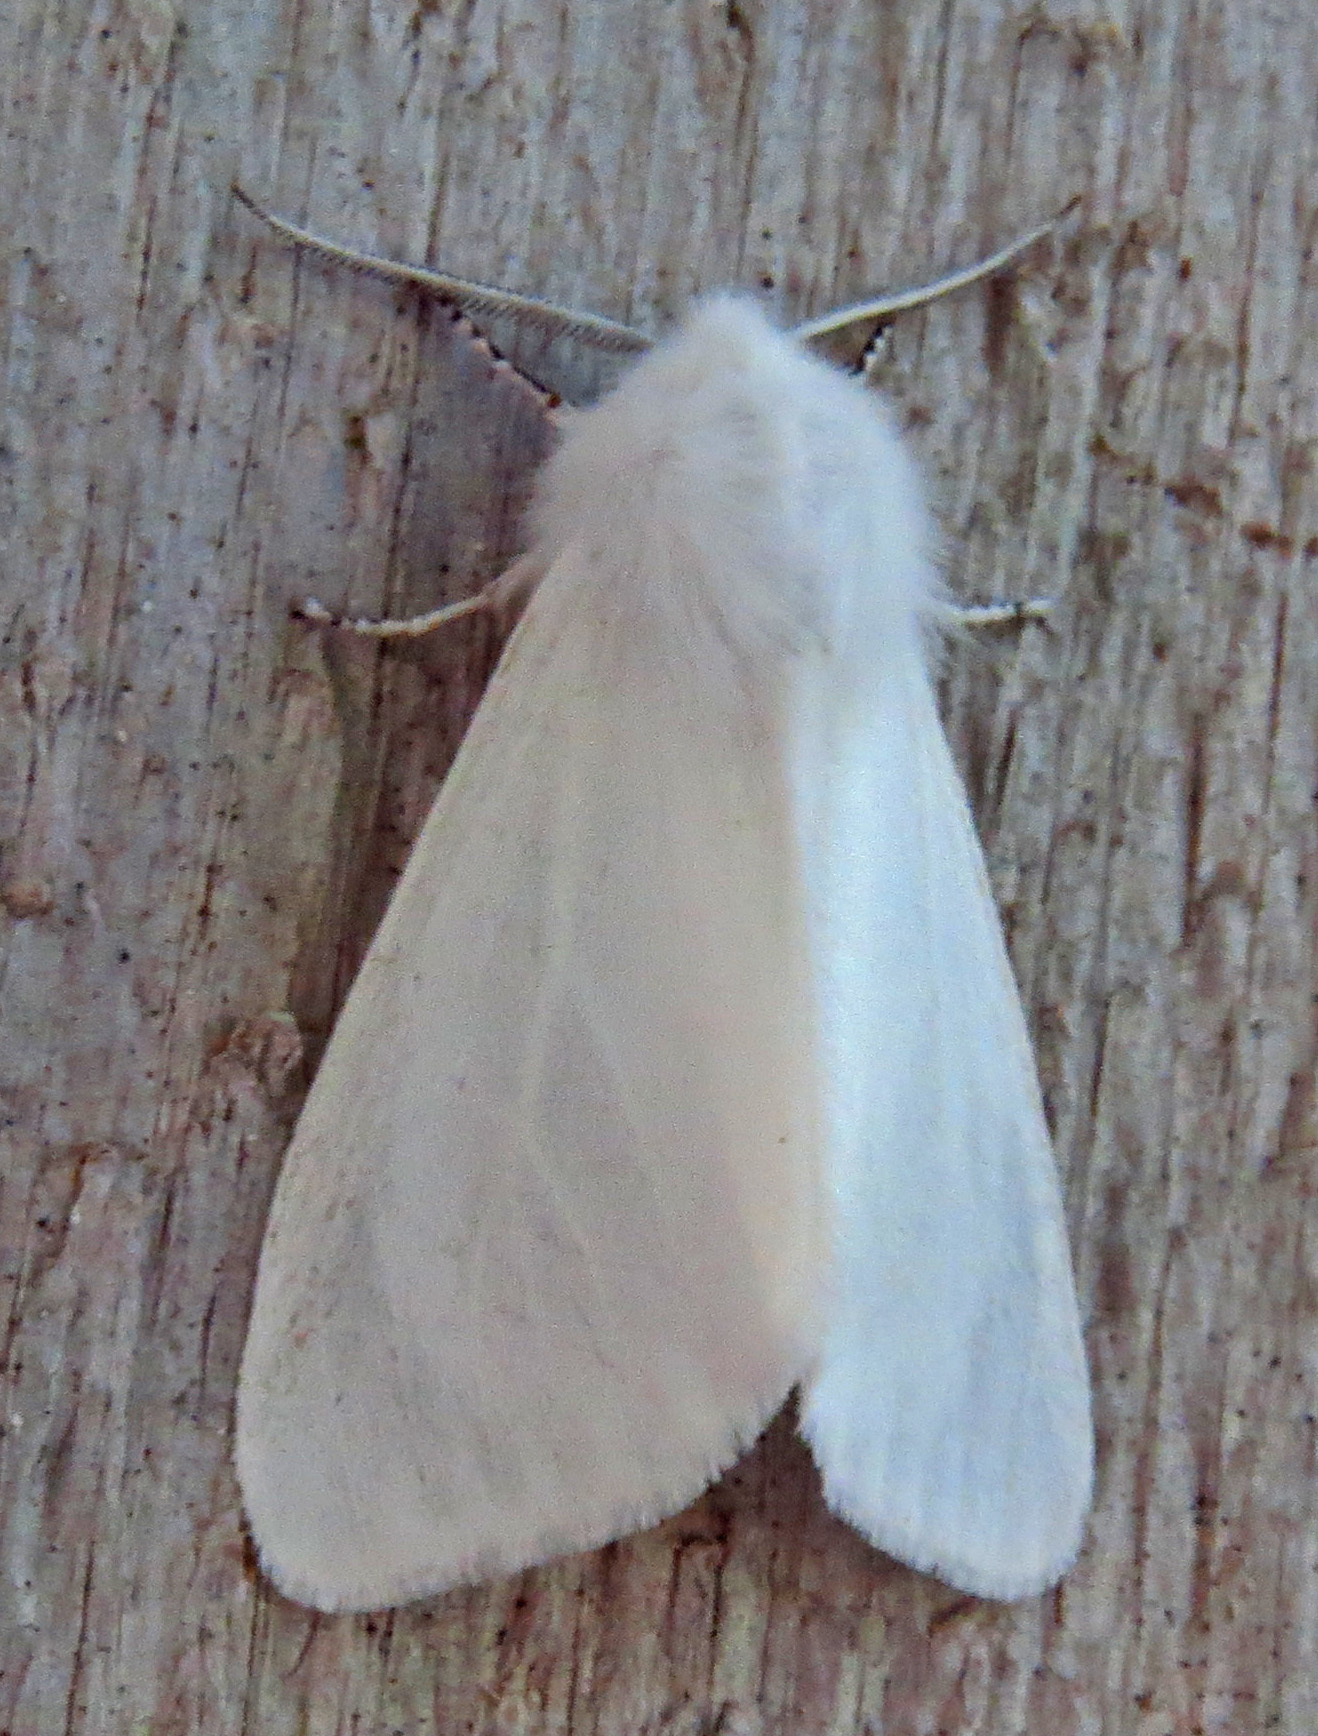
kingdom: Animalia
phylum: Arthropoda
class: Insecta
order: Lepidoptera
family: Erebidae
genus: Hyphantria
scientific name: Hyphantria cunea
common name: American white moth
